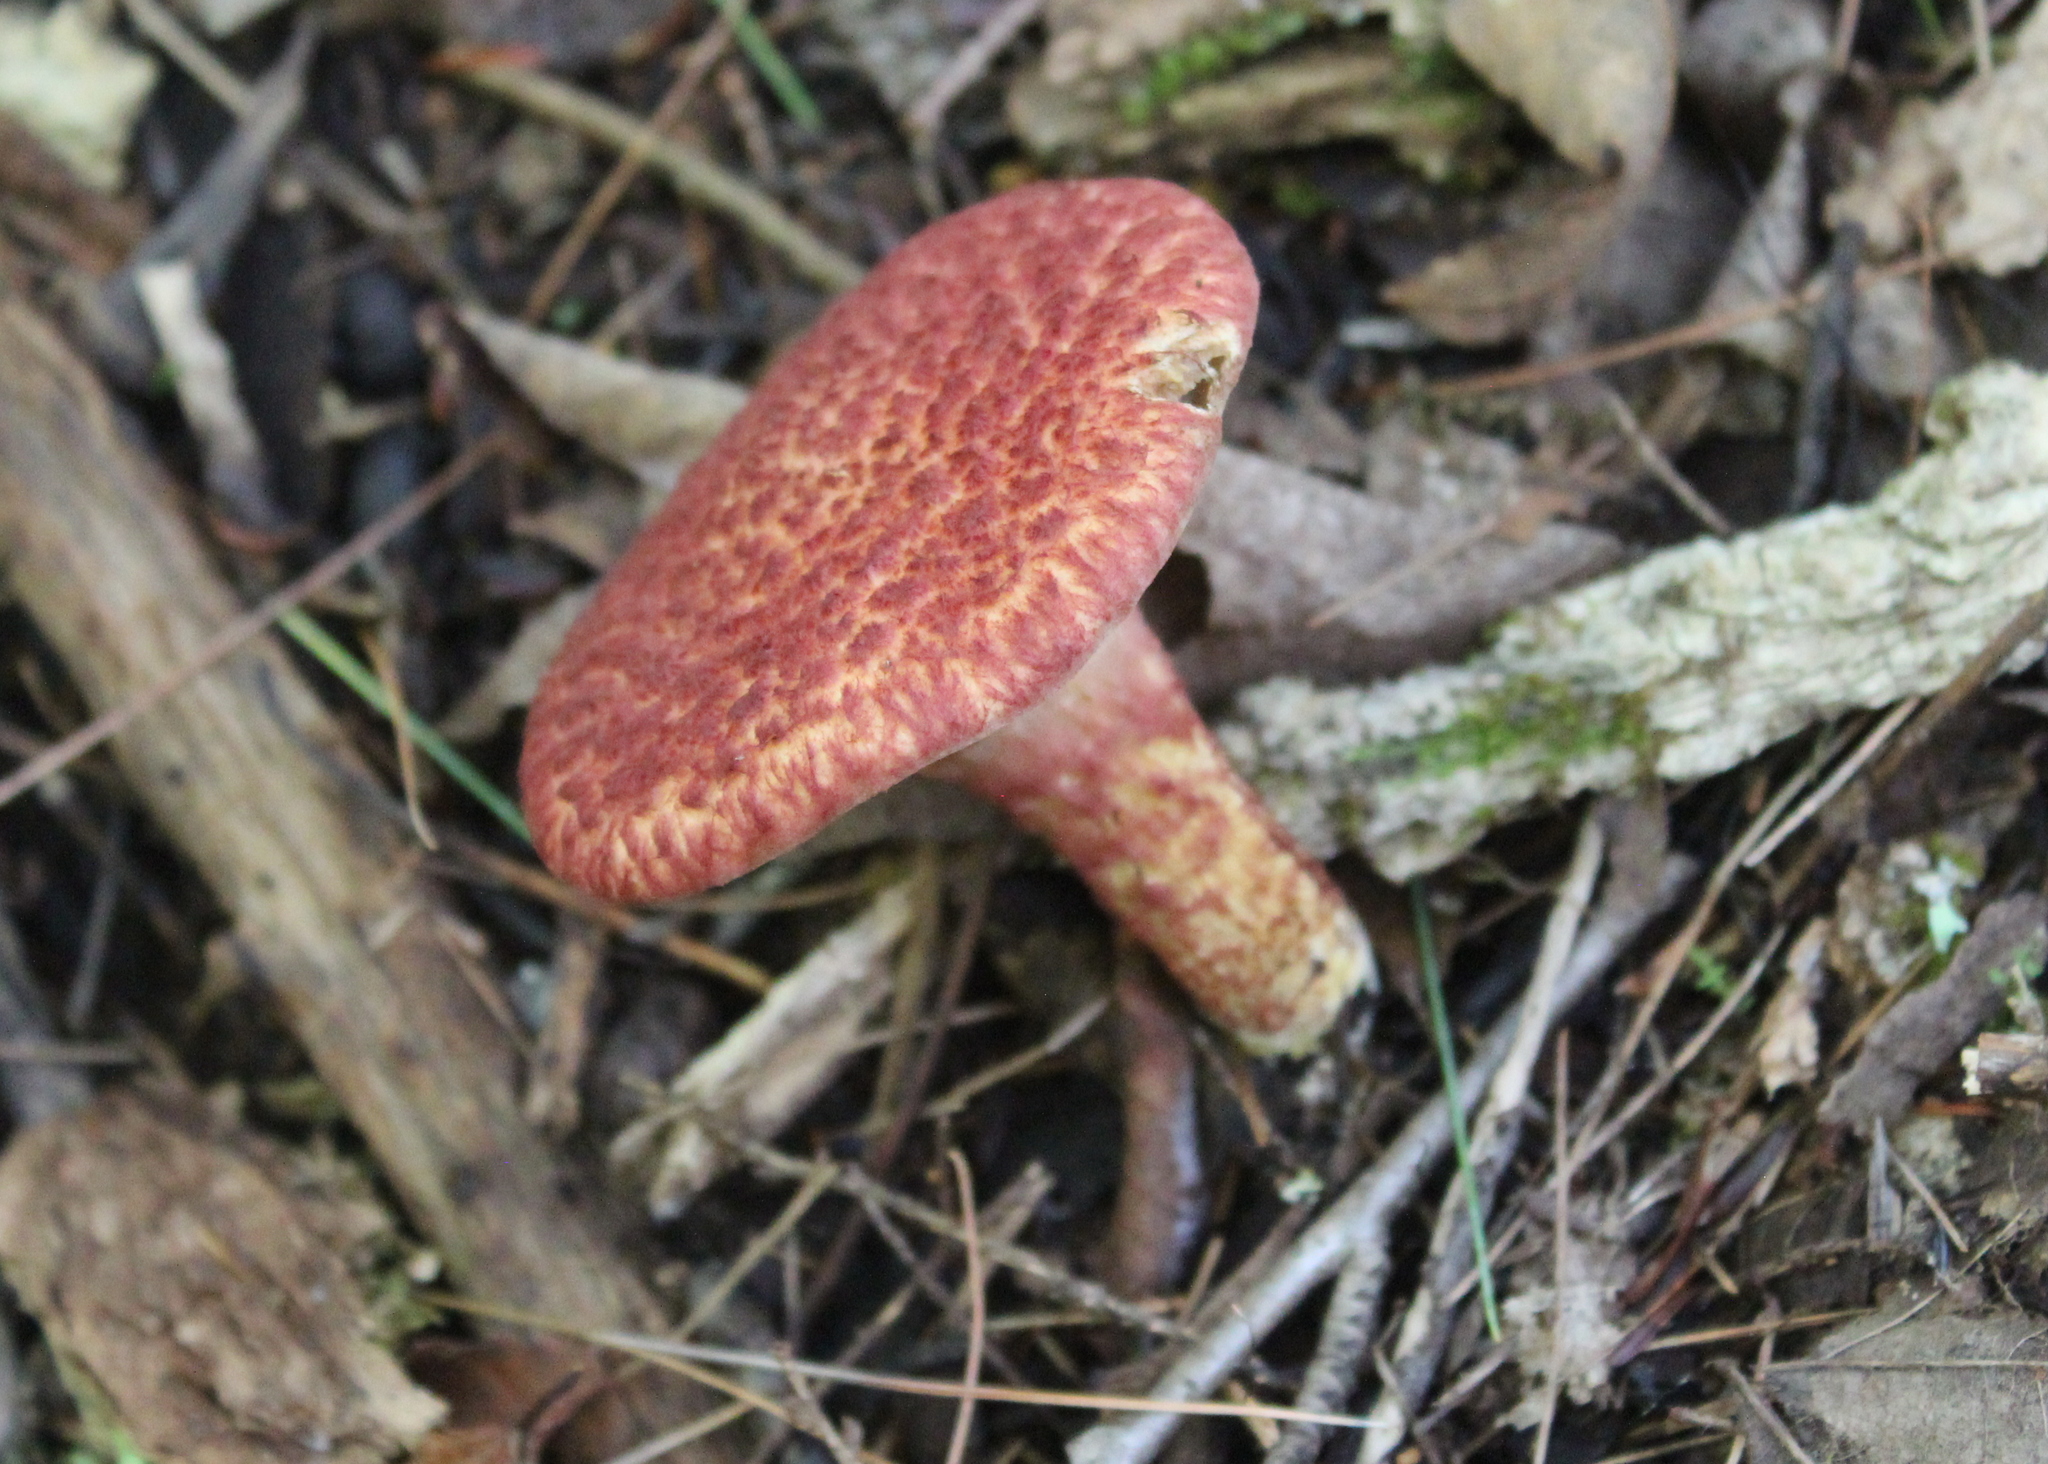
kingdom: Fungi
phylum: Basidiomycota
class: Agaricomycetes
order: Boletales
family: Suillaceae
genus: Suillus
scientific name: Suillus spraguei
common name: Painted suillus
